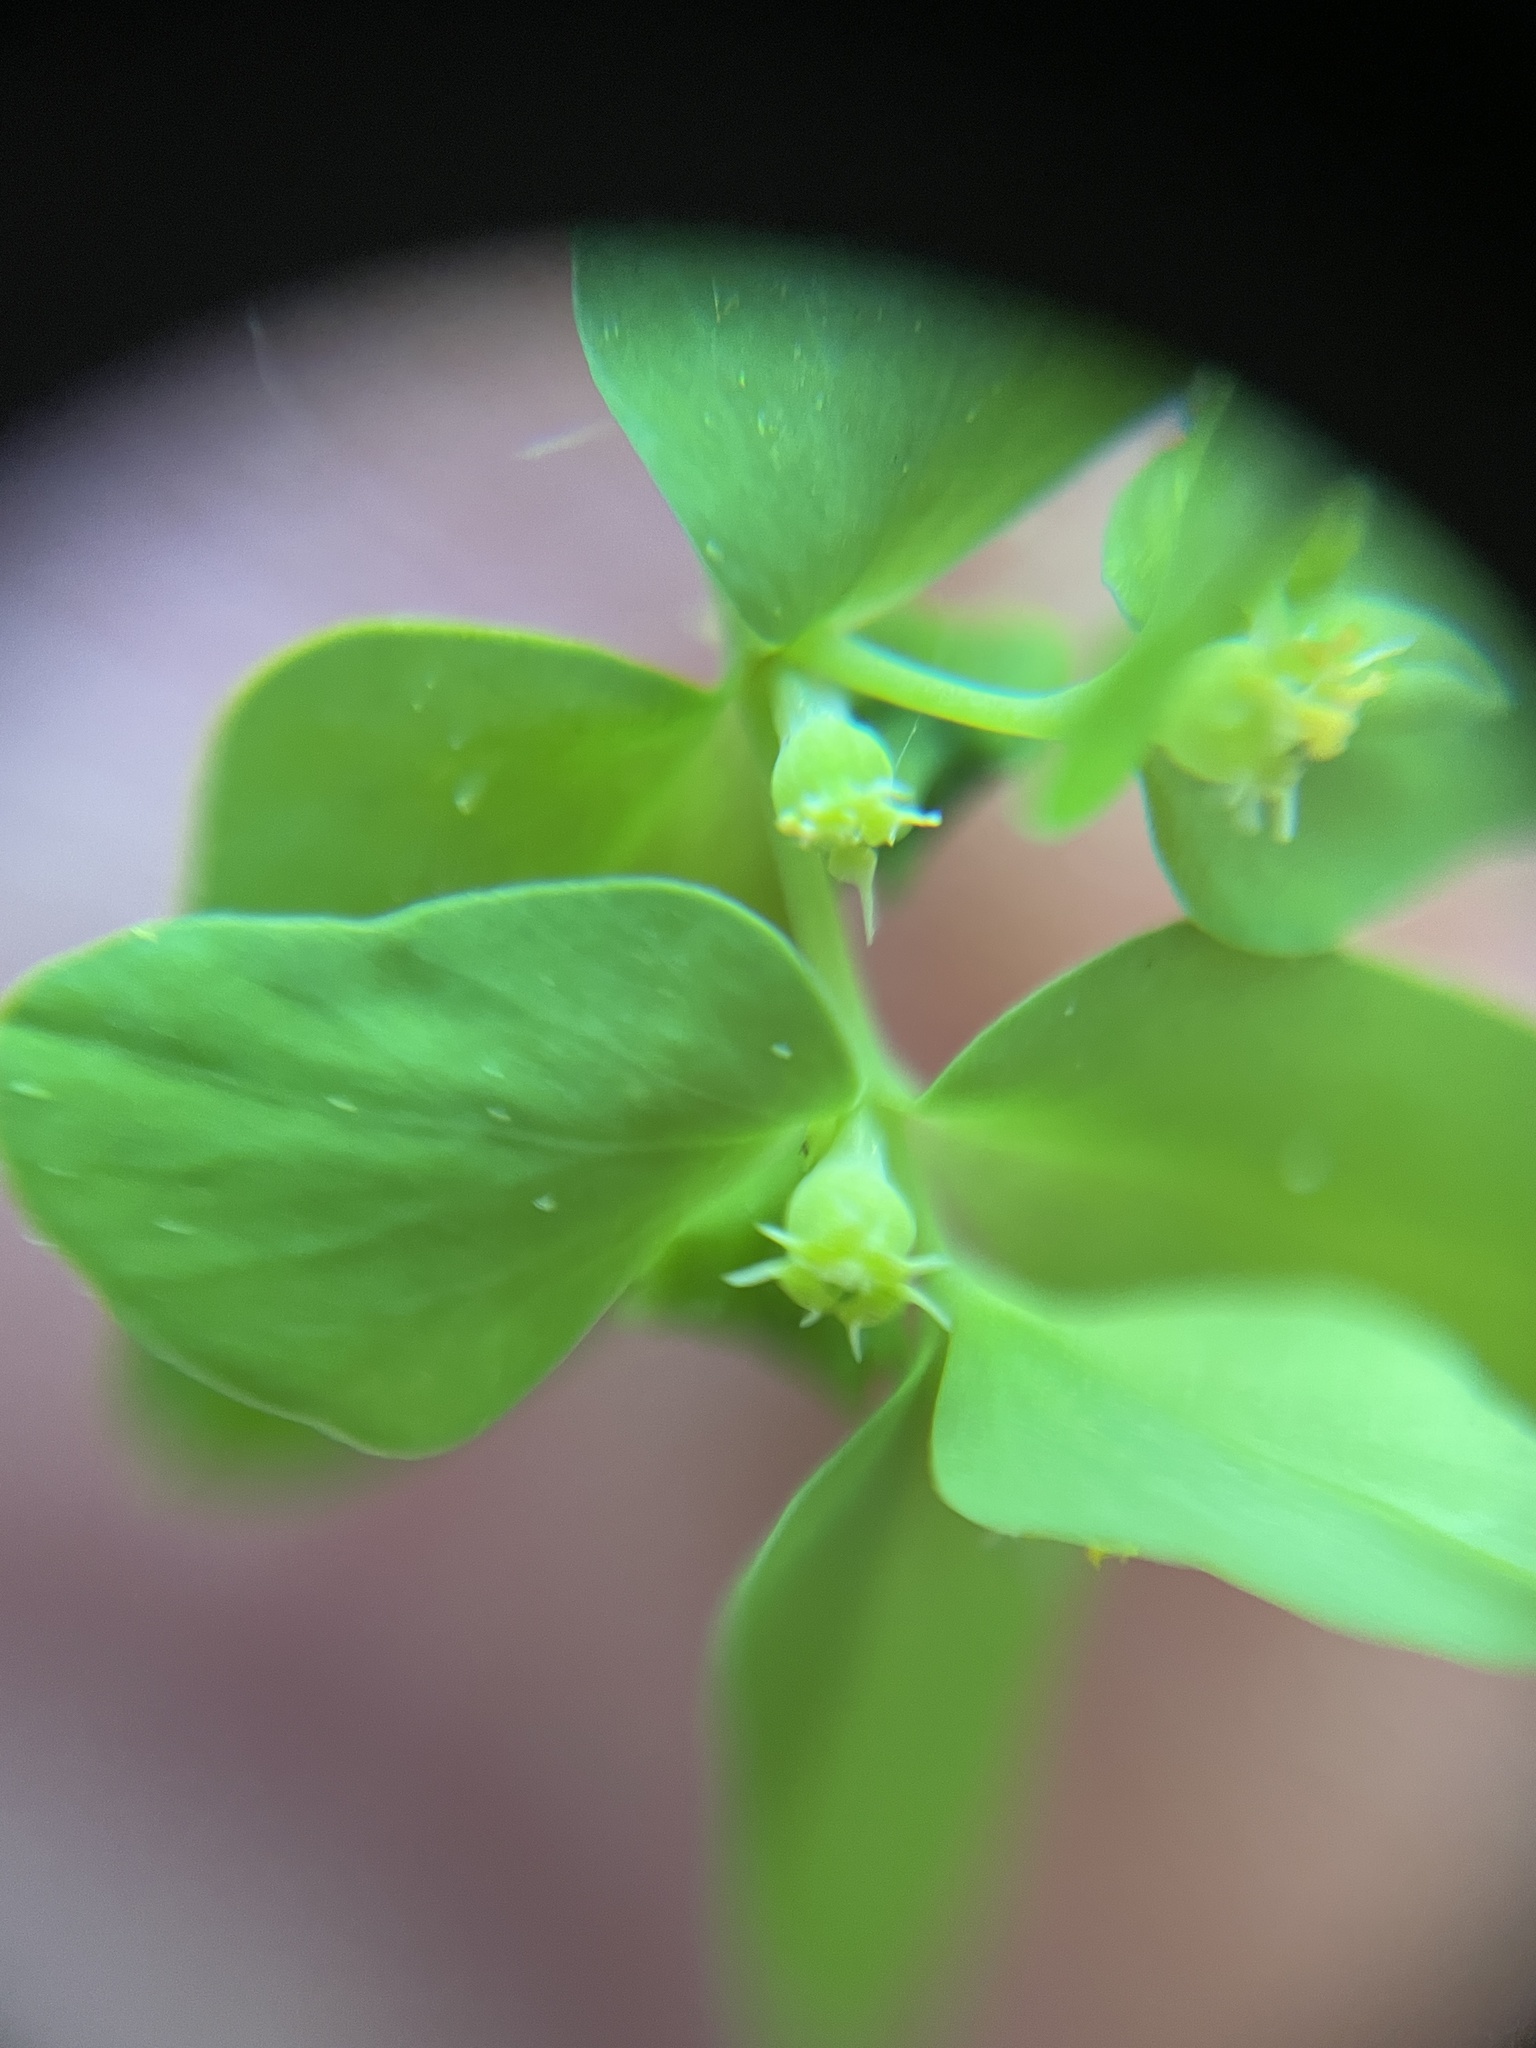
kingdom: Plantae
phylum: Tracheophyta
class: Magnoliopsida
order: Malpighiales
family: Euphorbiaceae
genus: Euphorbia
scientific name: Euphorbia peplus
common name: Petty spurge
